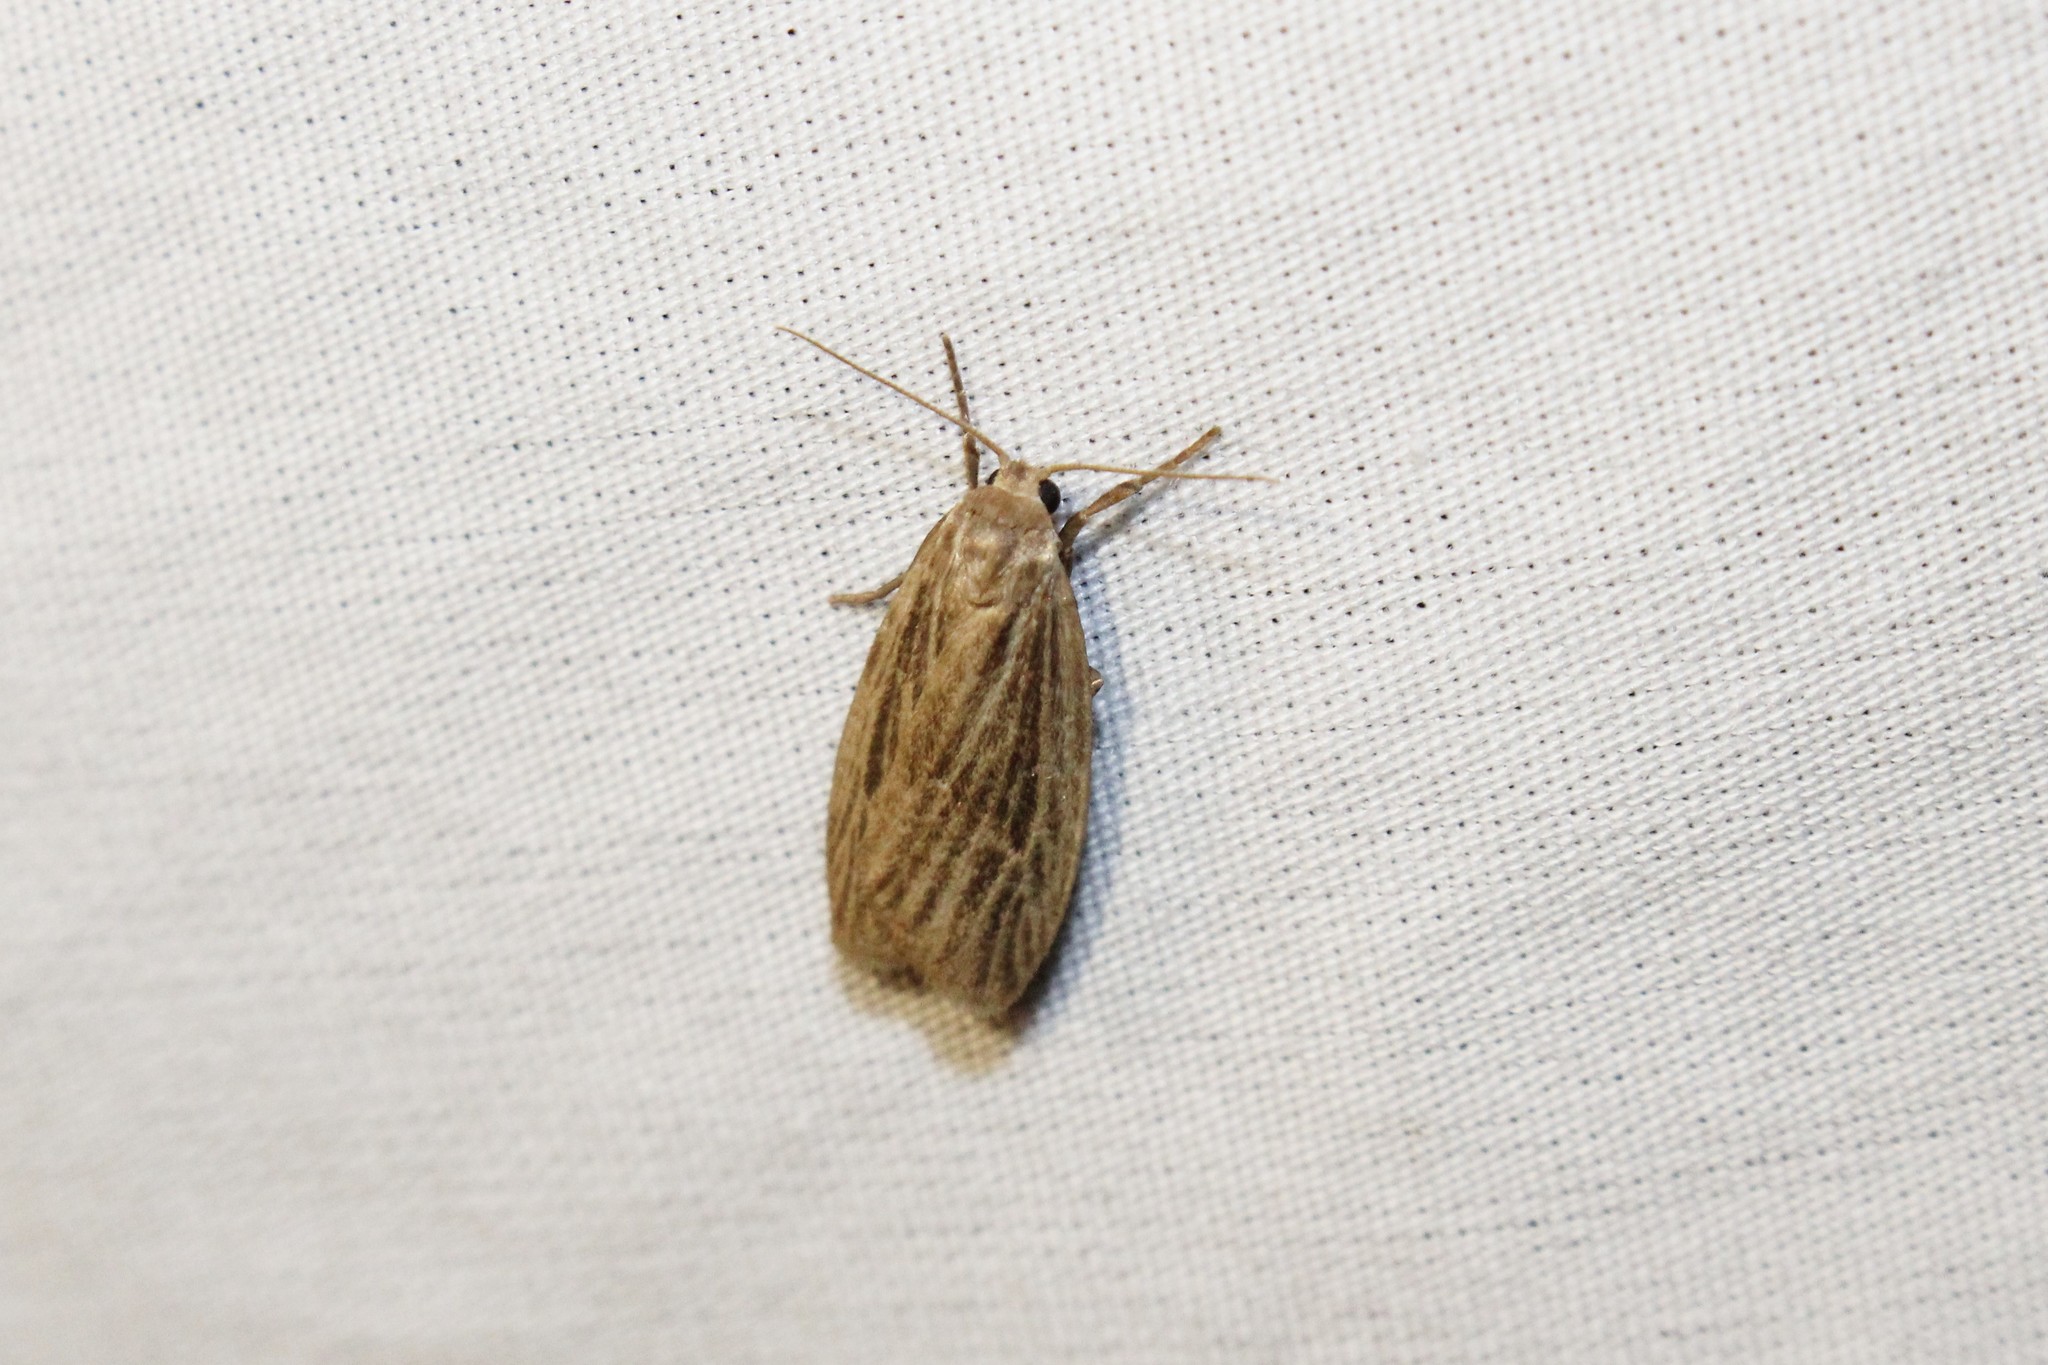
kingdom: Animalia
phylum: Arthropoda
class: Insecta
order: Lepidoptera
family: Erebidae
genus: Crambidia
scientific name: Crambidia pallida
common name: Pale lichen moth
